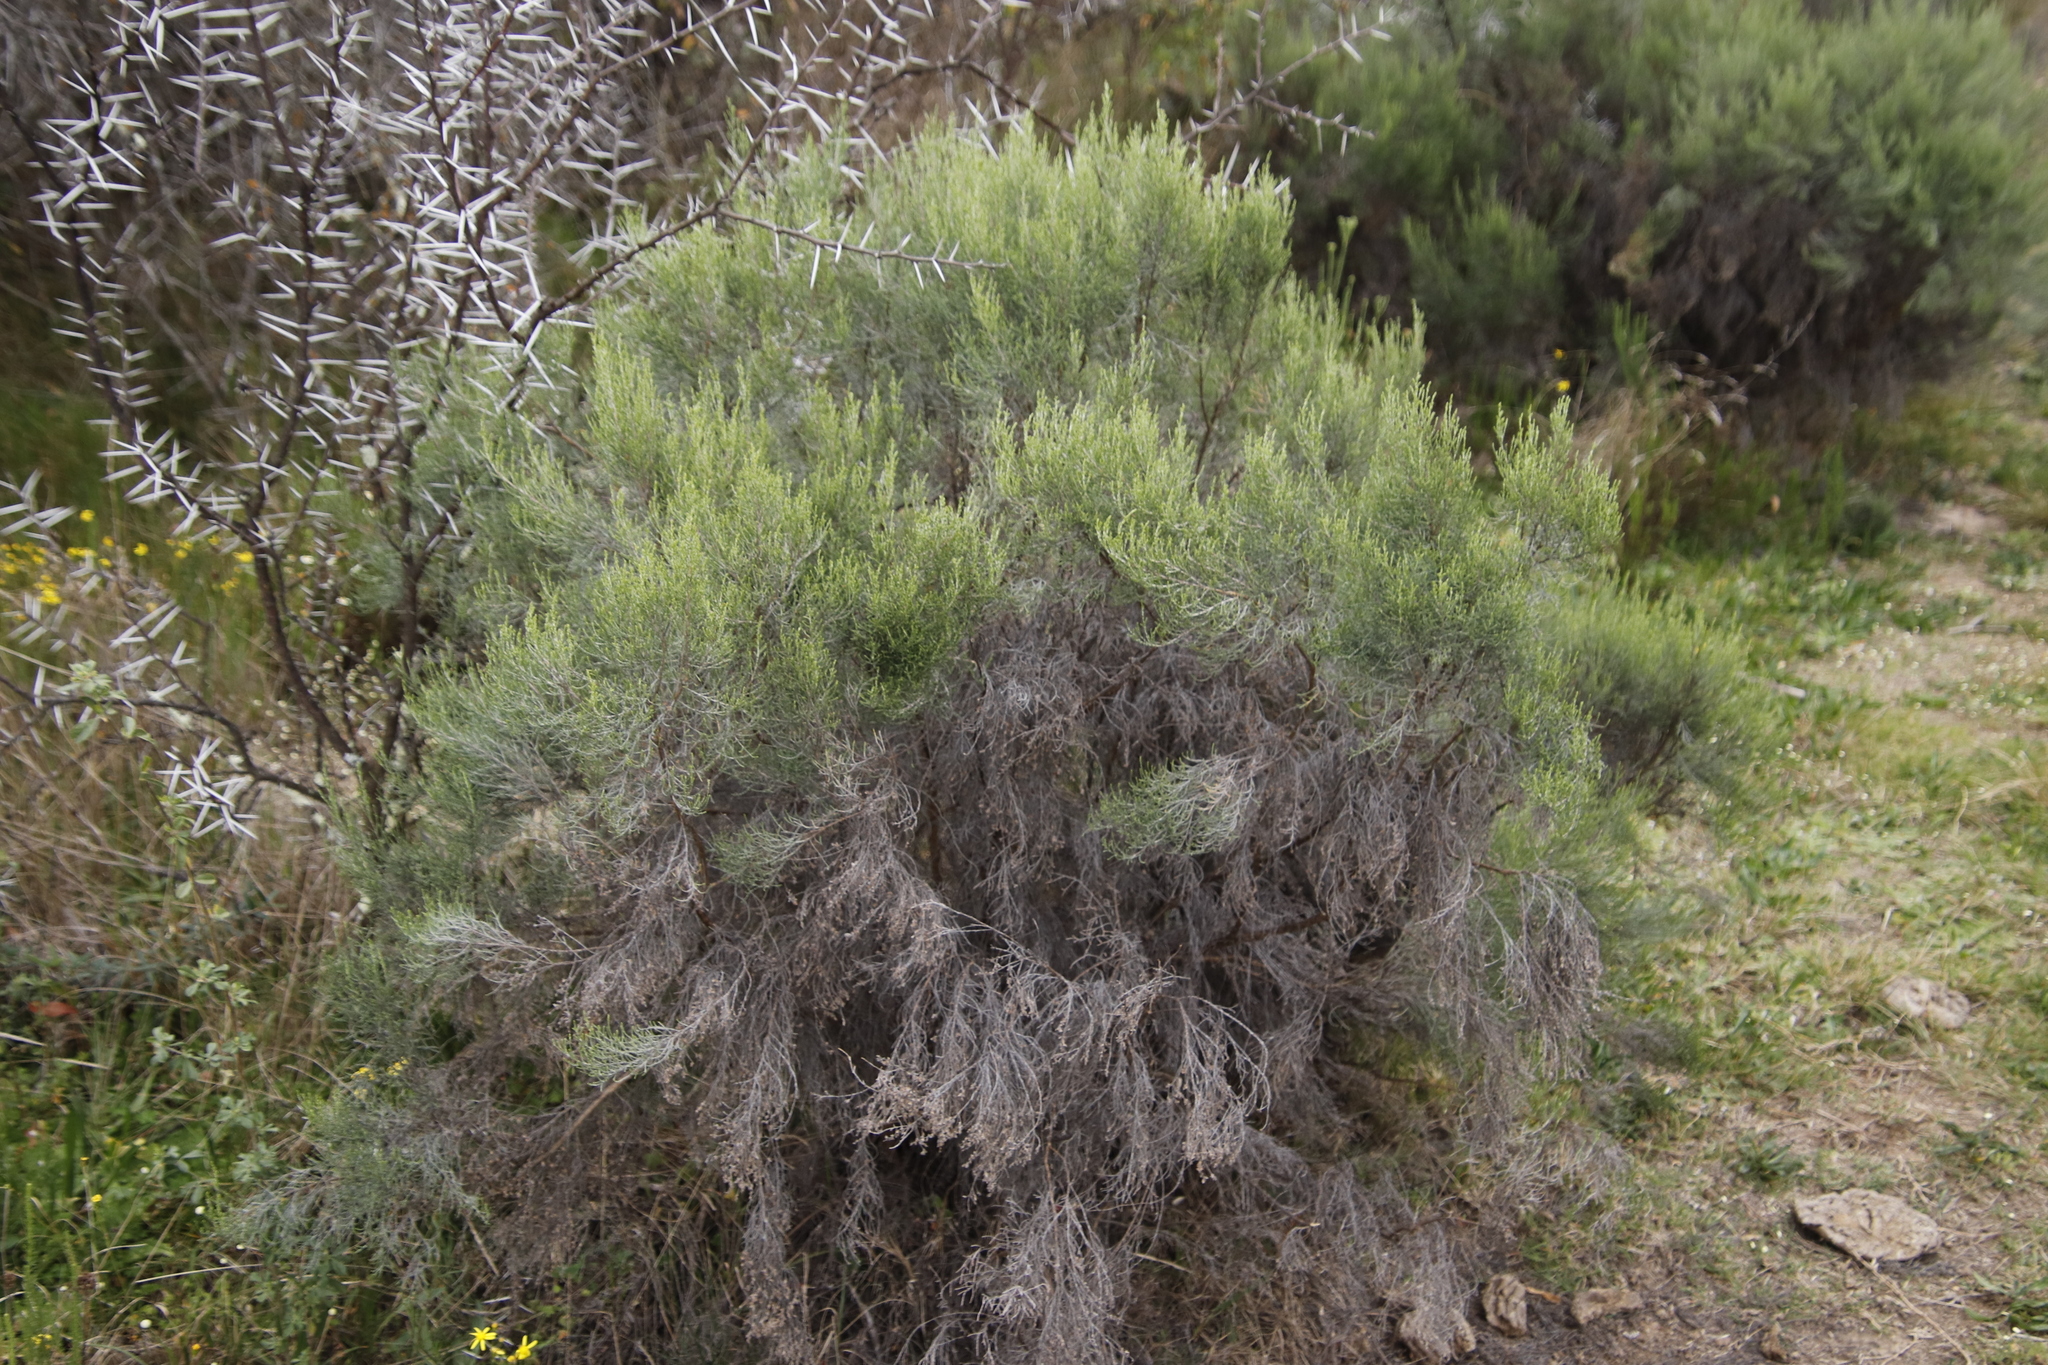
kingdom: Plantae
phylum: Tracheophyta
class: Magnoliopsida
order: Asterales
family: Asteraceae
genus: Dicerothamnus
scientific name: Dicerothamnus rhinocerotis
